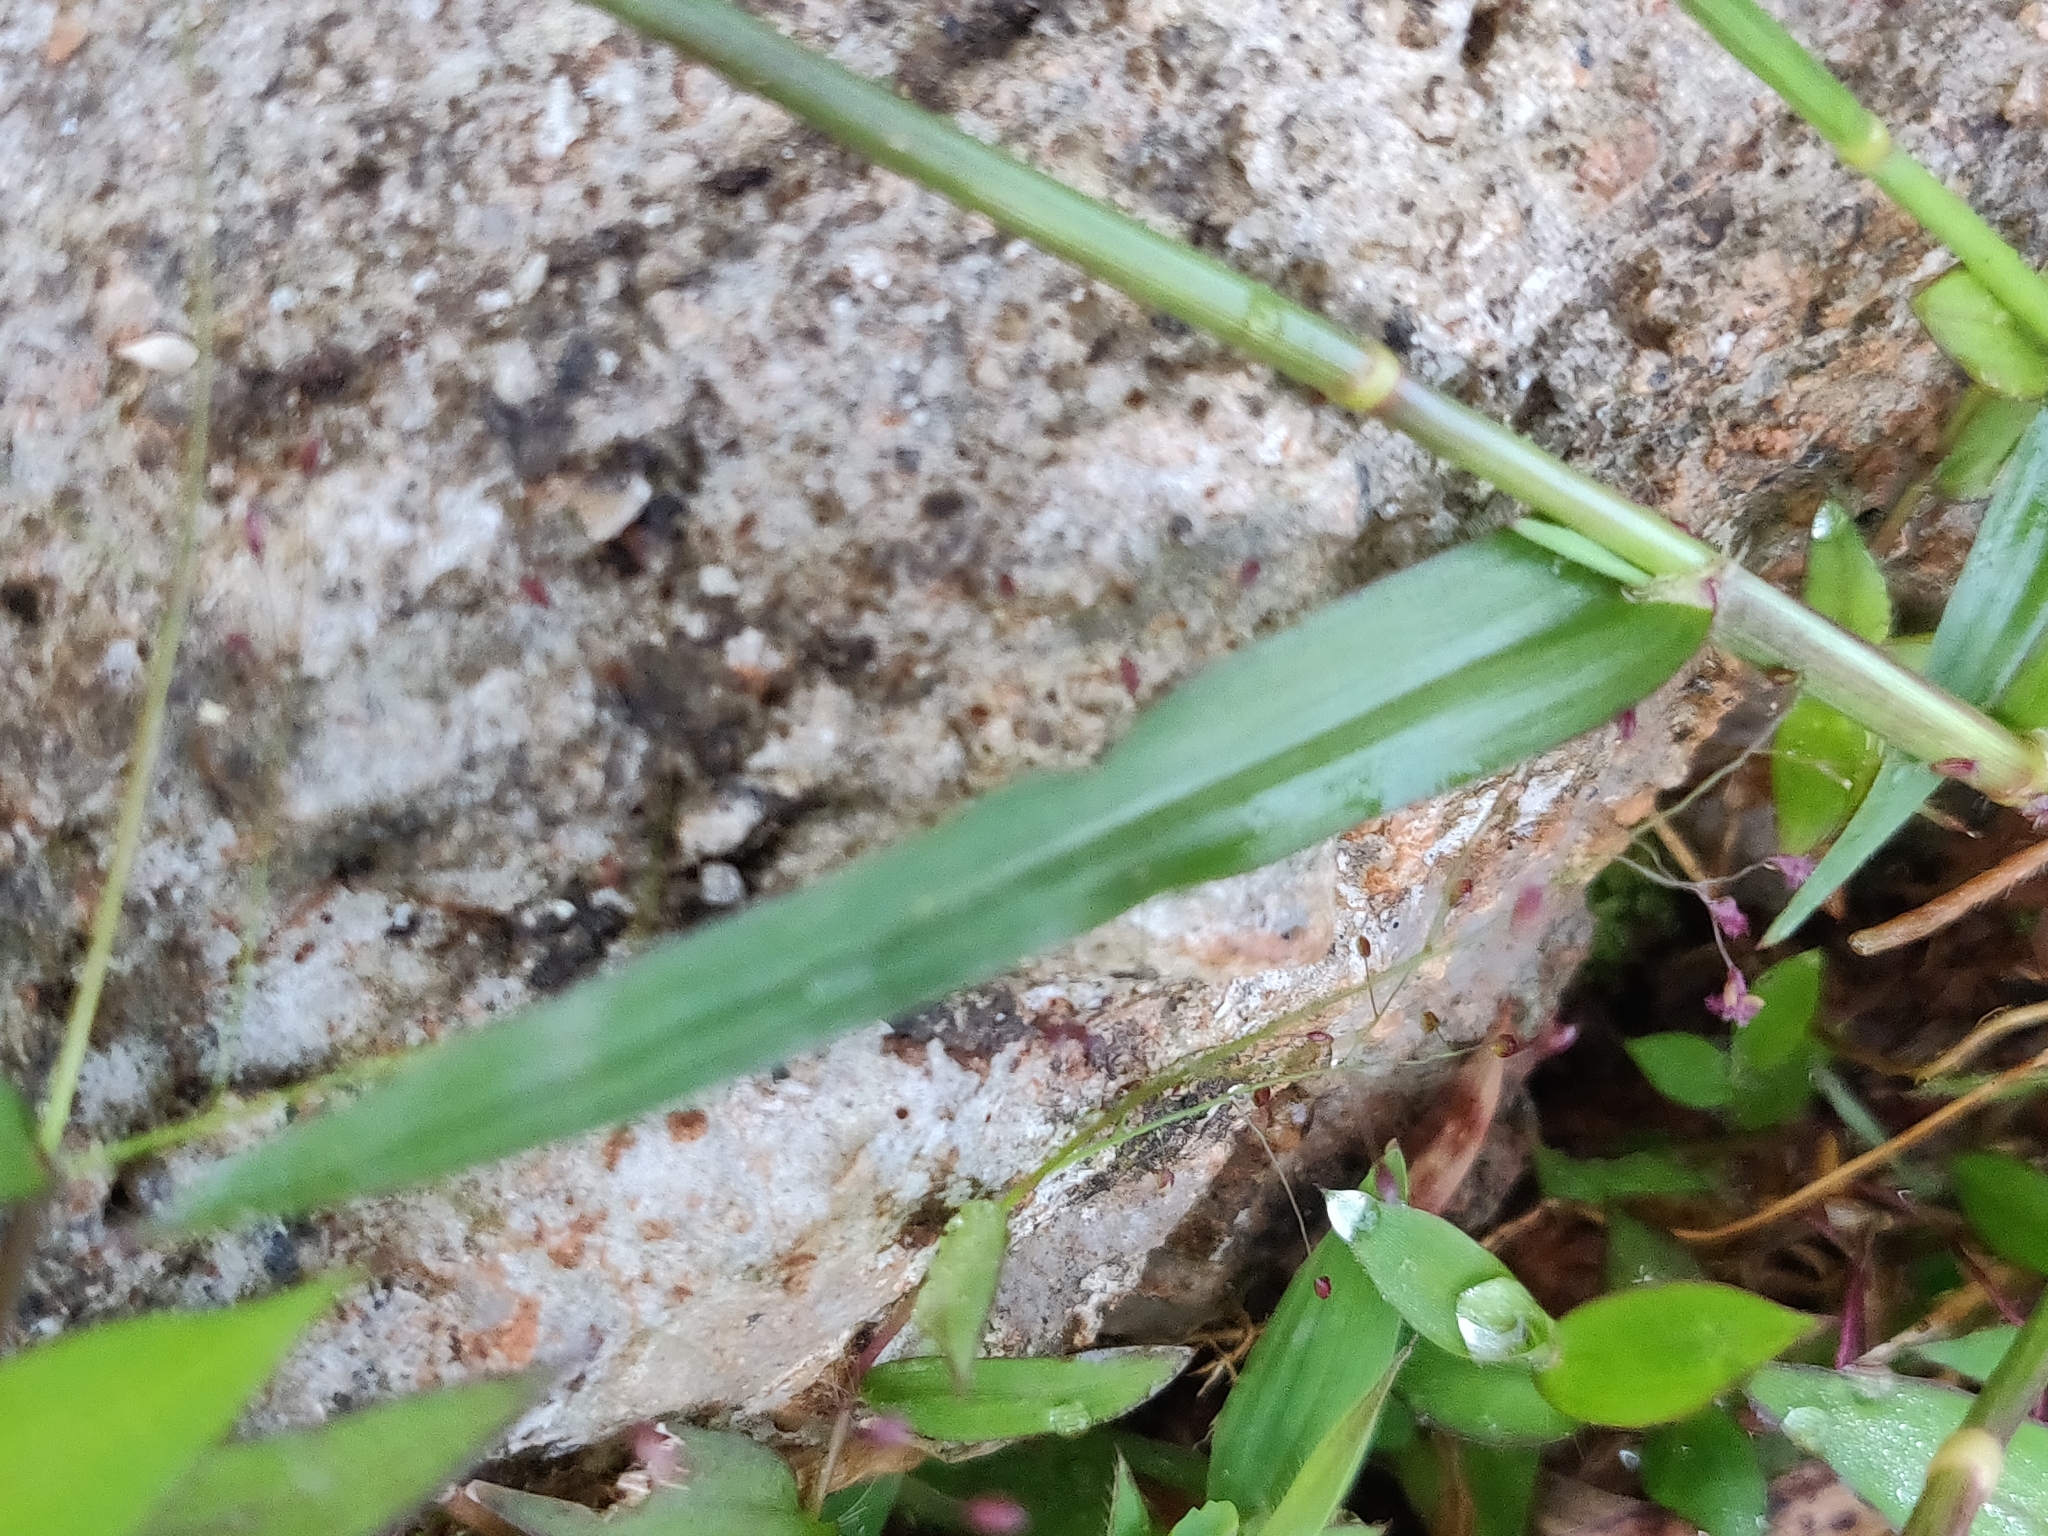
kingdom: Plantae
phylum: Tracheophyta
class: Liliopsida
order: Poales
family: Poaceae
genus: Dactyloctenium
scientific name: Dactyloctenium aegyptium
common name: Egyptian grass
